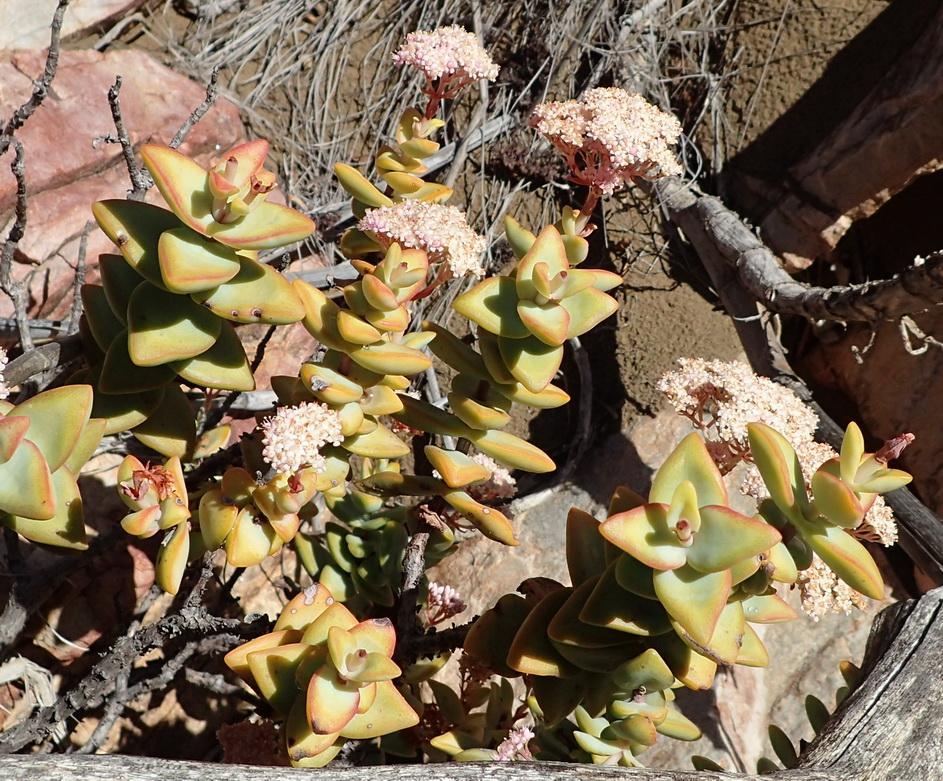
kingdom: Plantae
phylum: Tracheophyta
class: Magnoliopsida
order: Saxifragales
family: Crassulaceae
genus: Crassula
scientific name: Crassula rupestris
